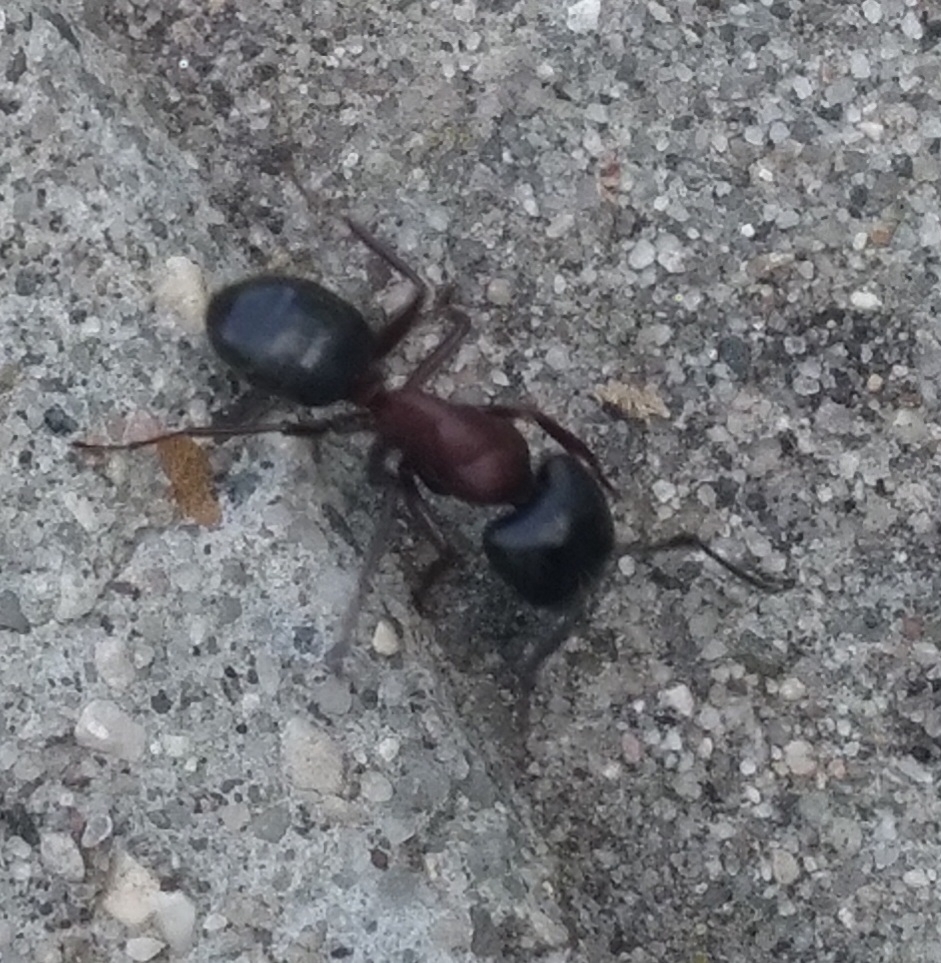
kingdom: Animalia
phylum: Arthropoda
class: Insecta
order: Hymenoptera
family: Formicidae
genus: Camponotus
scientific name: Camponotus novaeboracensis
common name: New york carpenter ant
